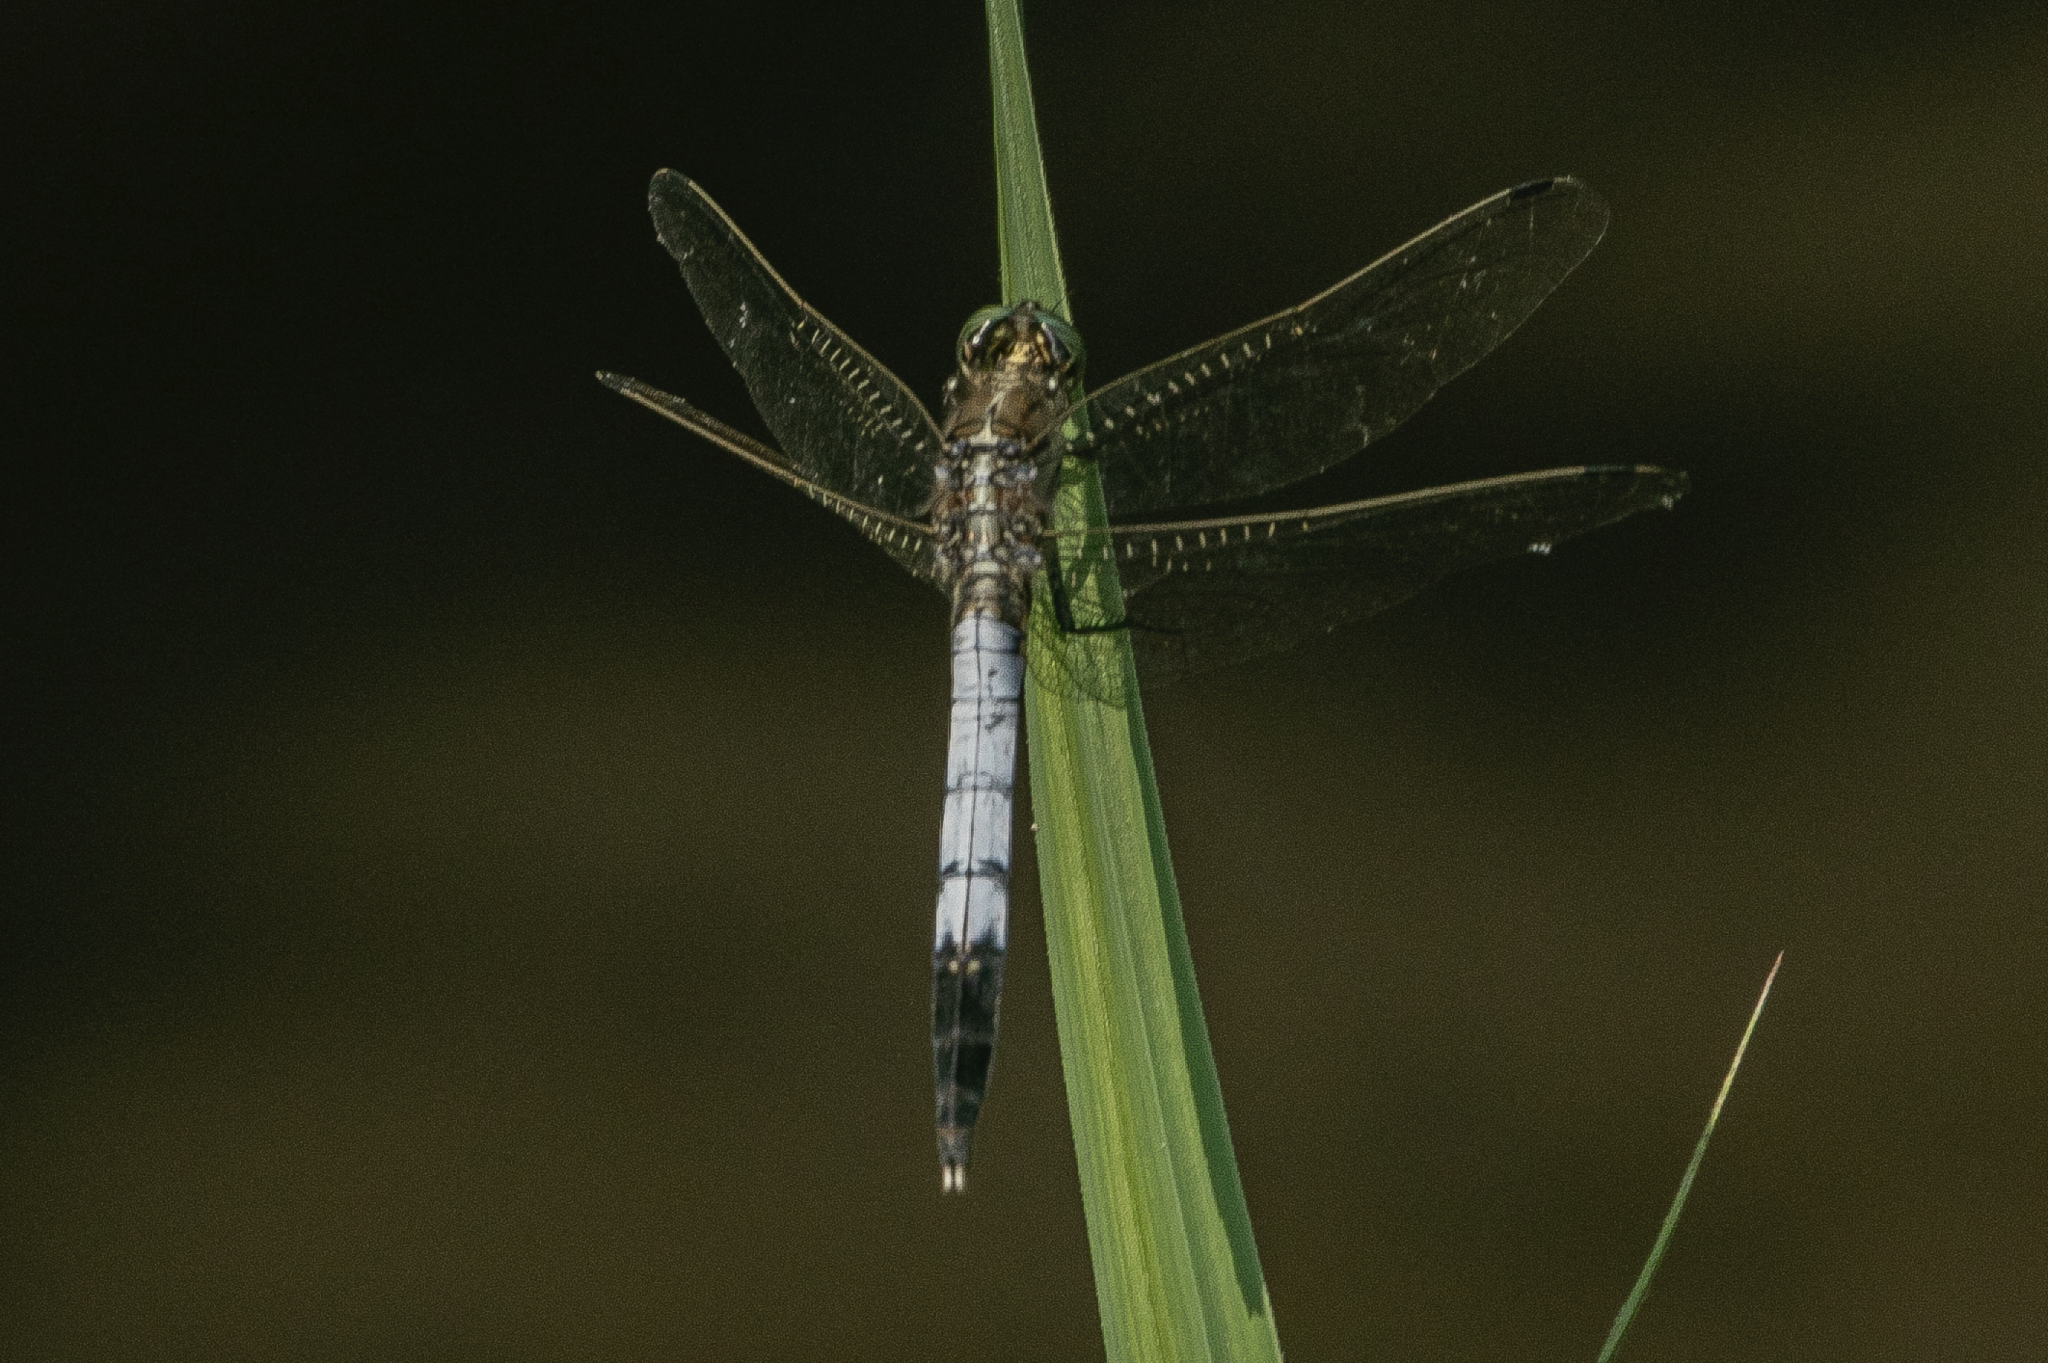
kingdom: Animalia
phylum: Arthropoda
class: Insecta
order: Odonata
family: Libellulidae
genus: Orthetrum
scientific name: Orthetrum albistylum
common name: White-tailed skimmer
